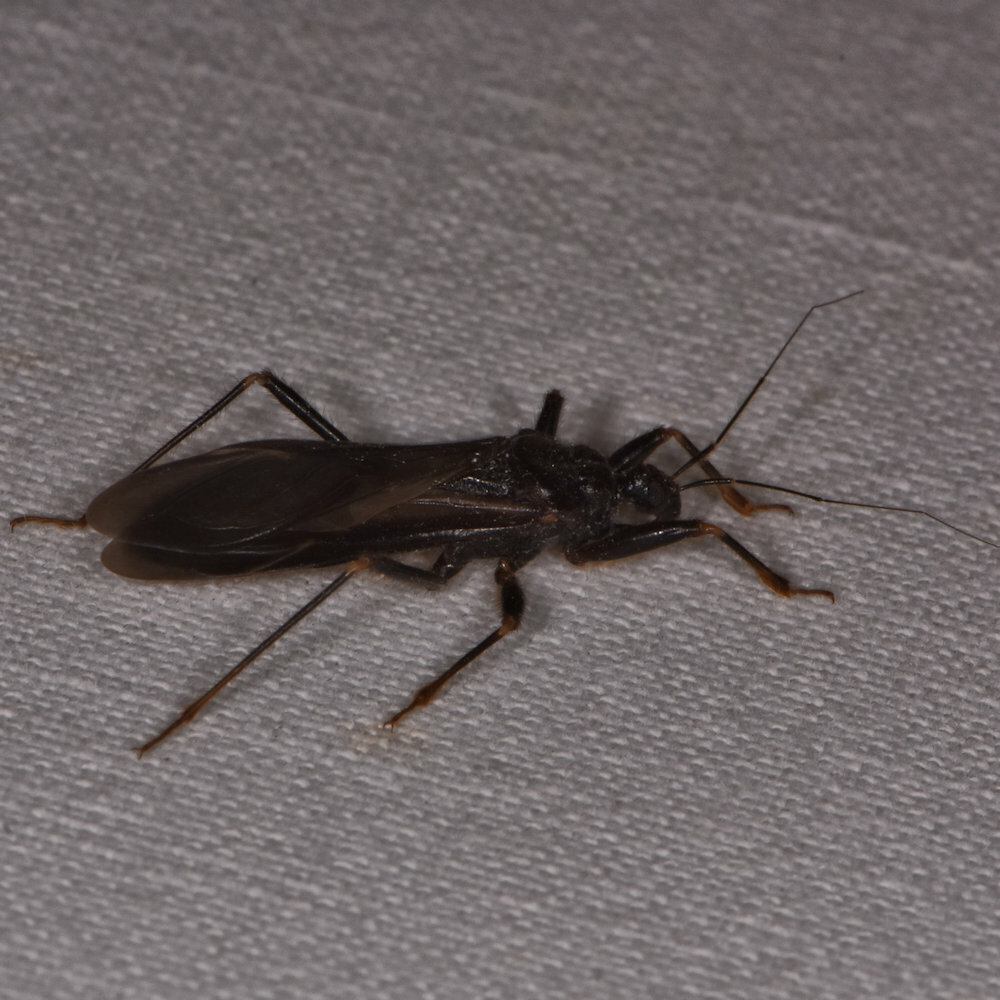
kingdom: Animalia
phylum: Arthropoda
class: Insecta
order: Hemiptera
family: Reduviidae
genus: Reduvius
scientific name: Reduvius personatus
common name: Masked hunter
